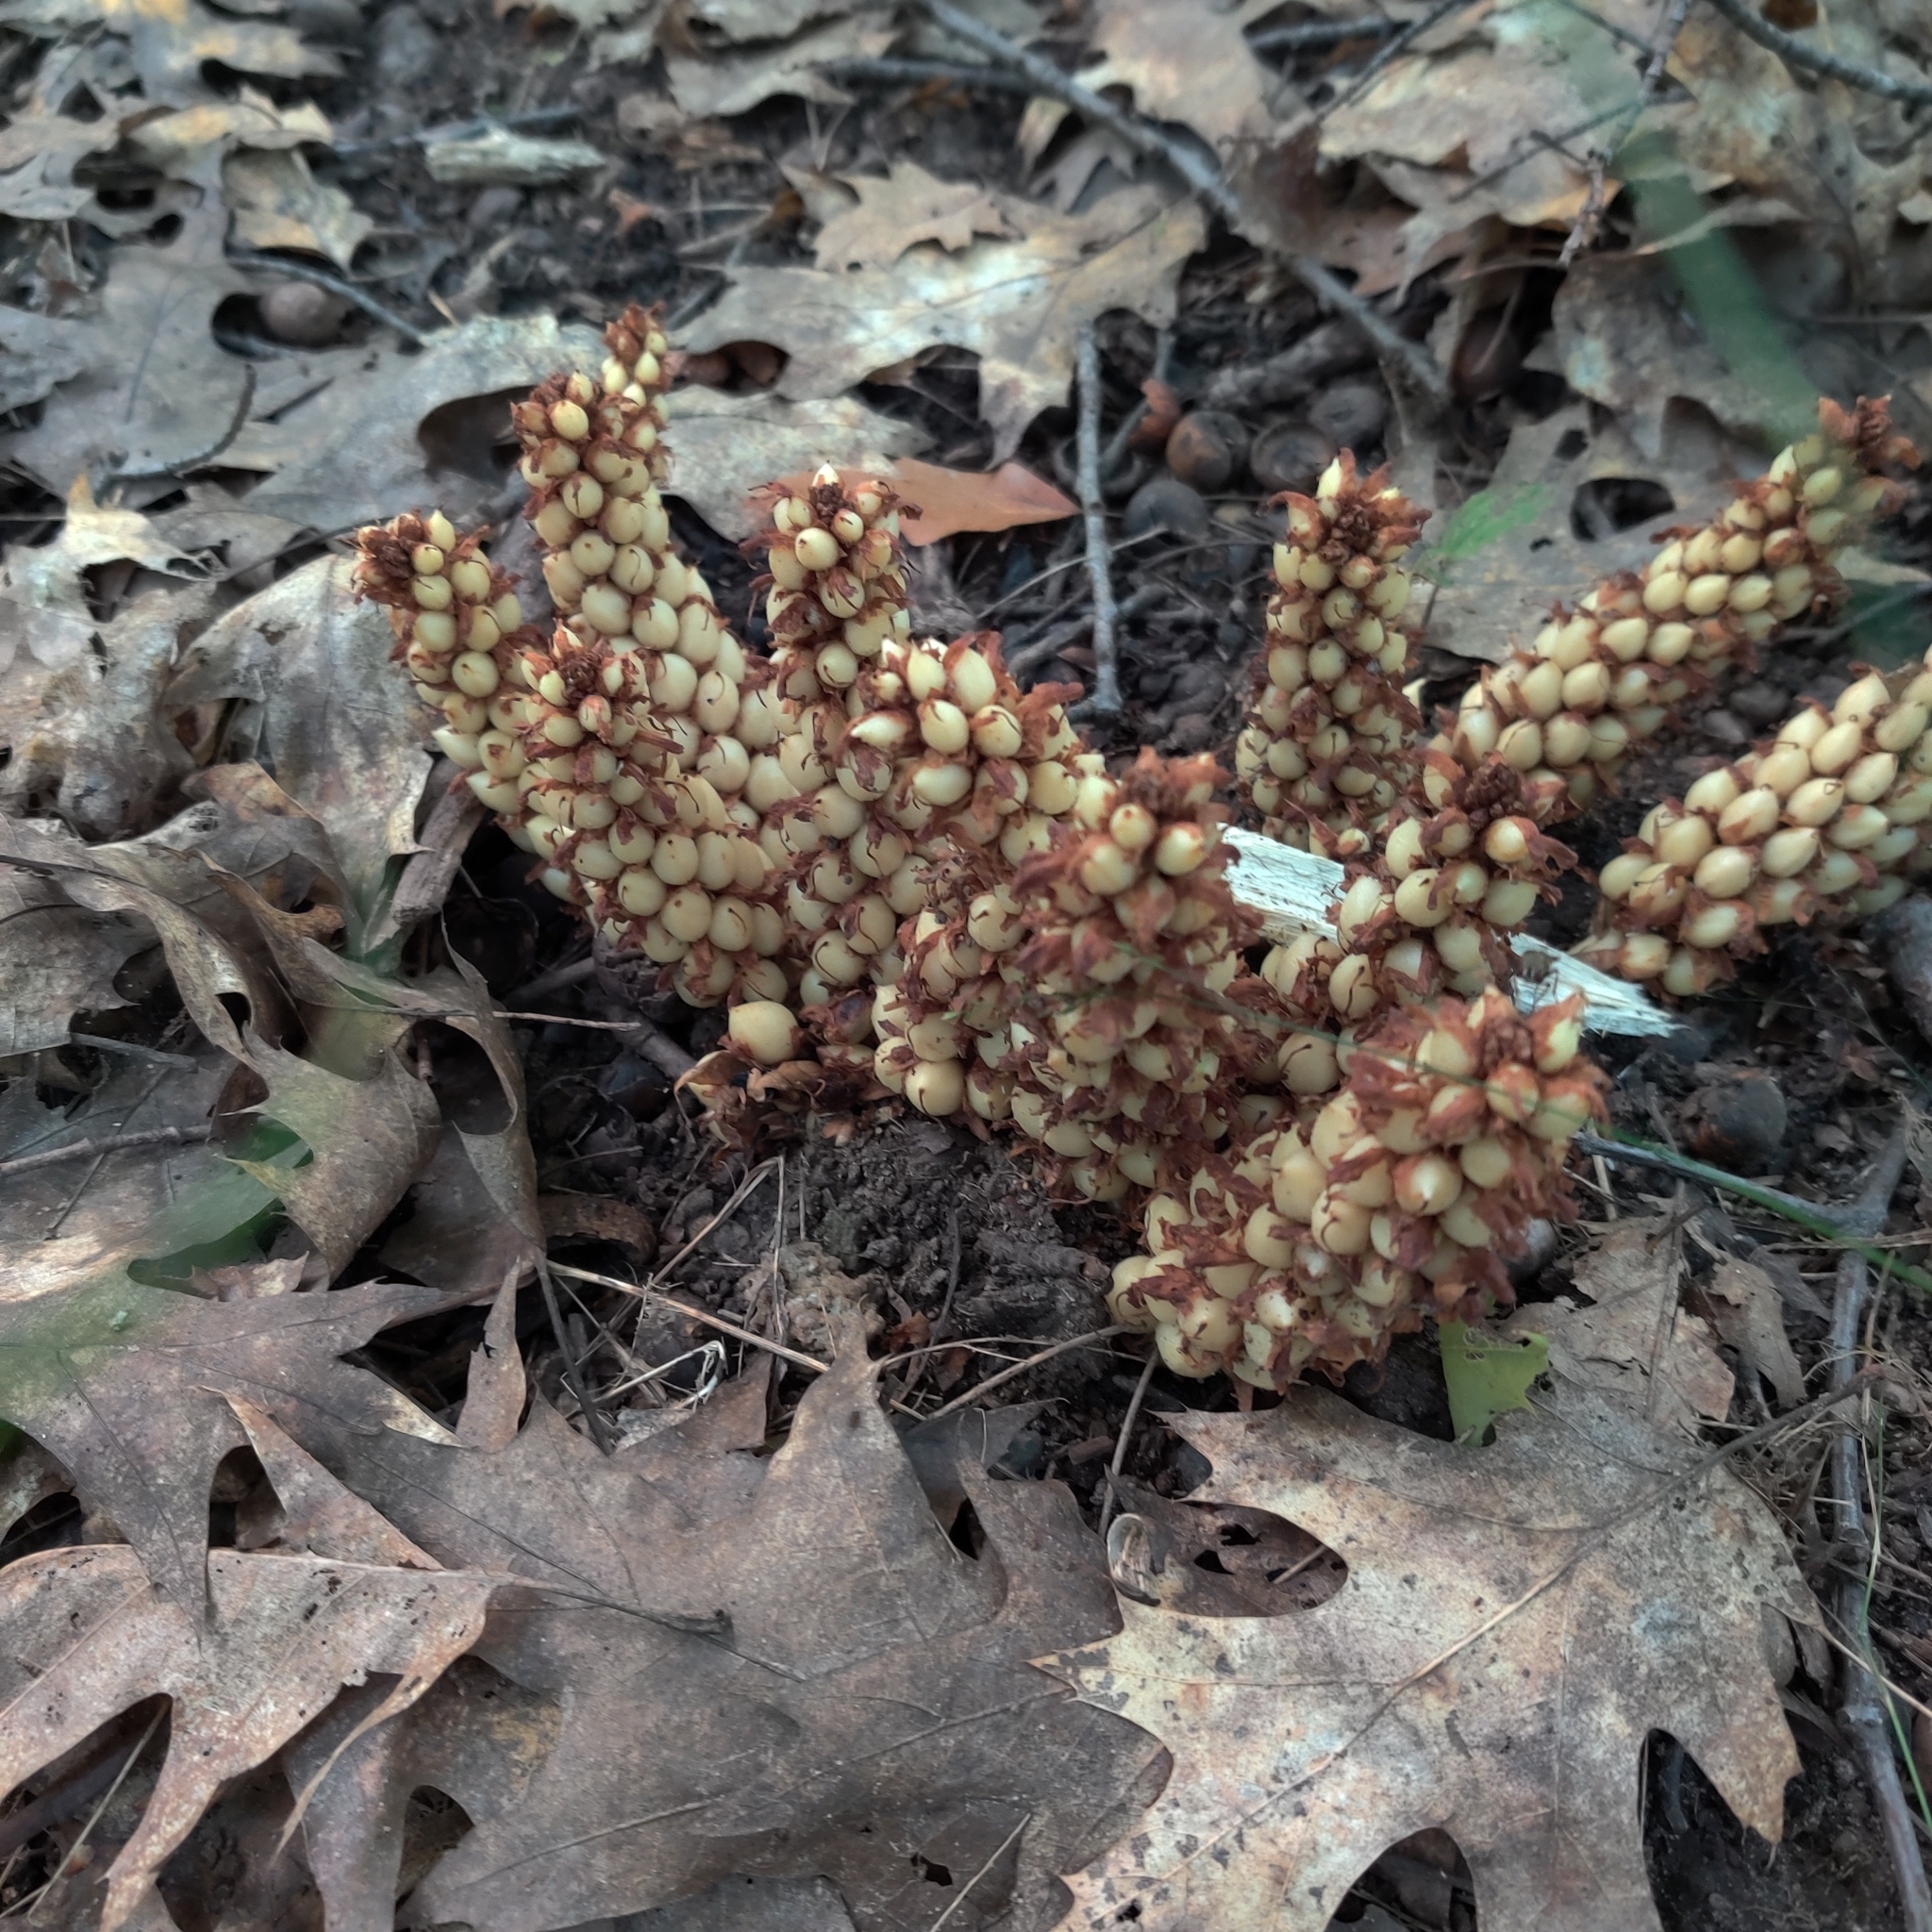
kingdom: Plantae
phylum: Tracheophyta
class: Magnoliopsida
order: Lamiales
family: Orobanchaceae
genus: Conopholis
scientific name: Conopholis americana
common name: American cancer-root
